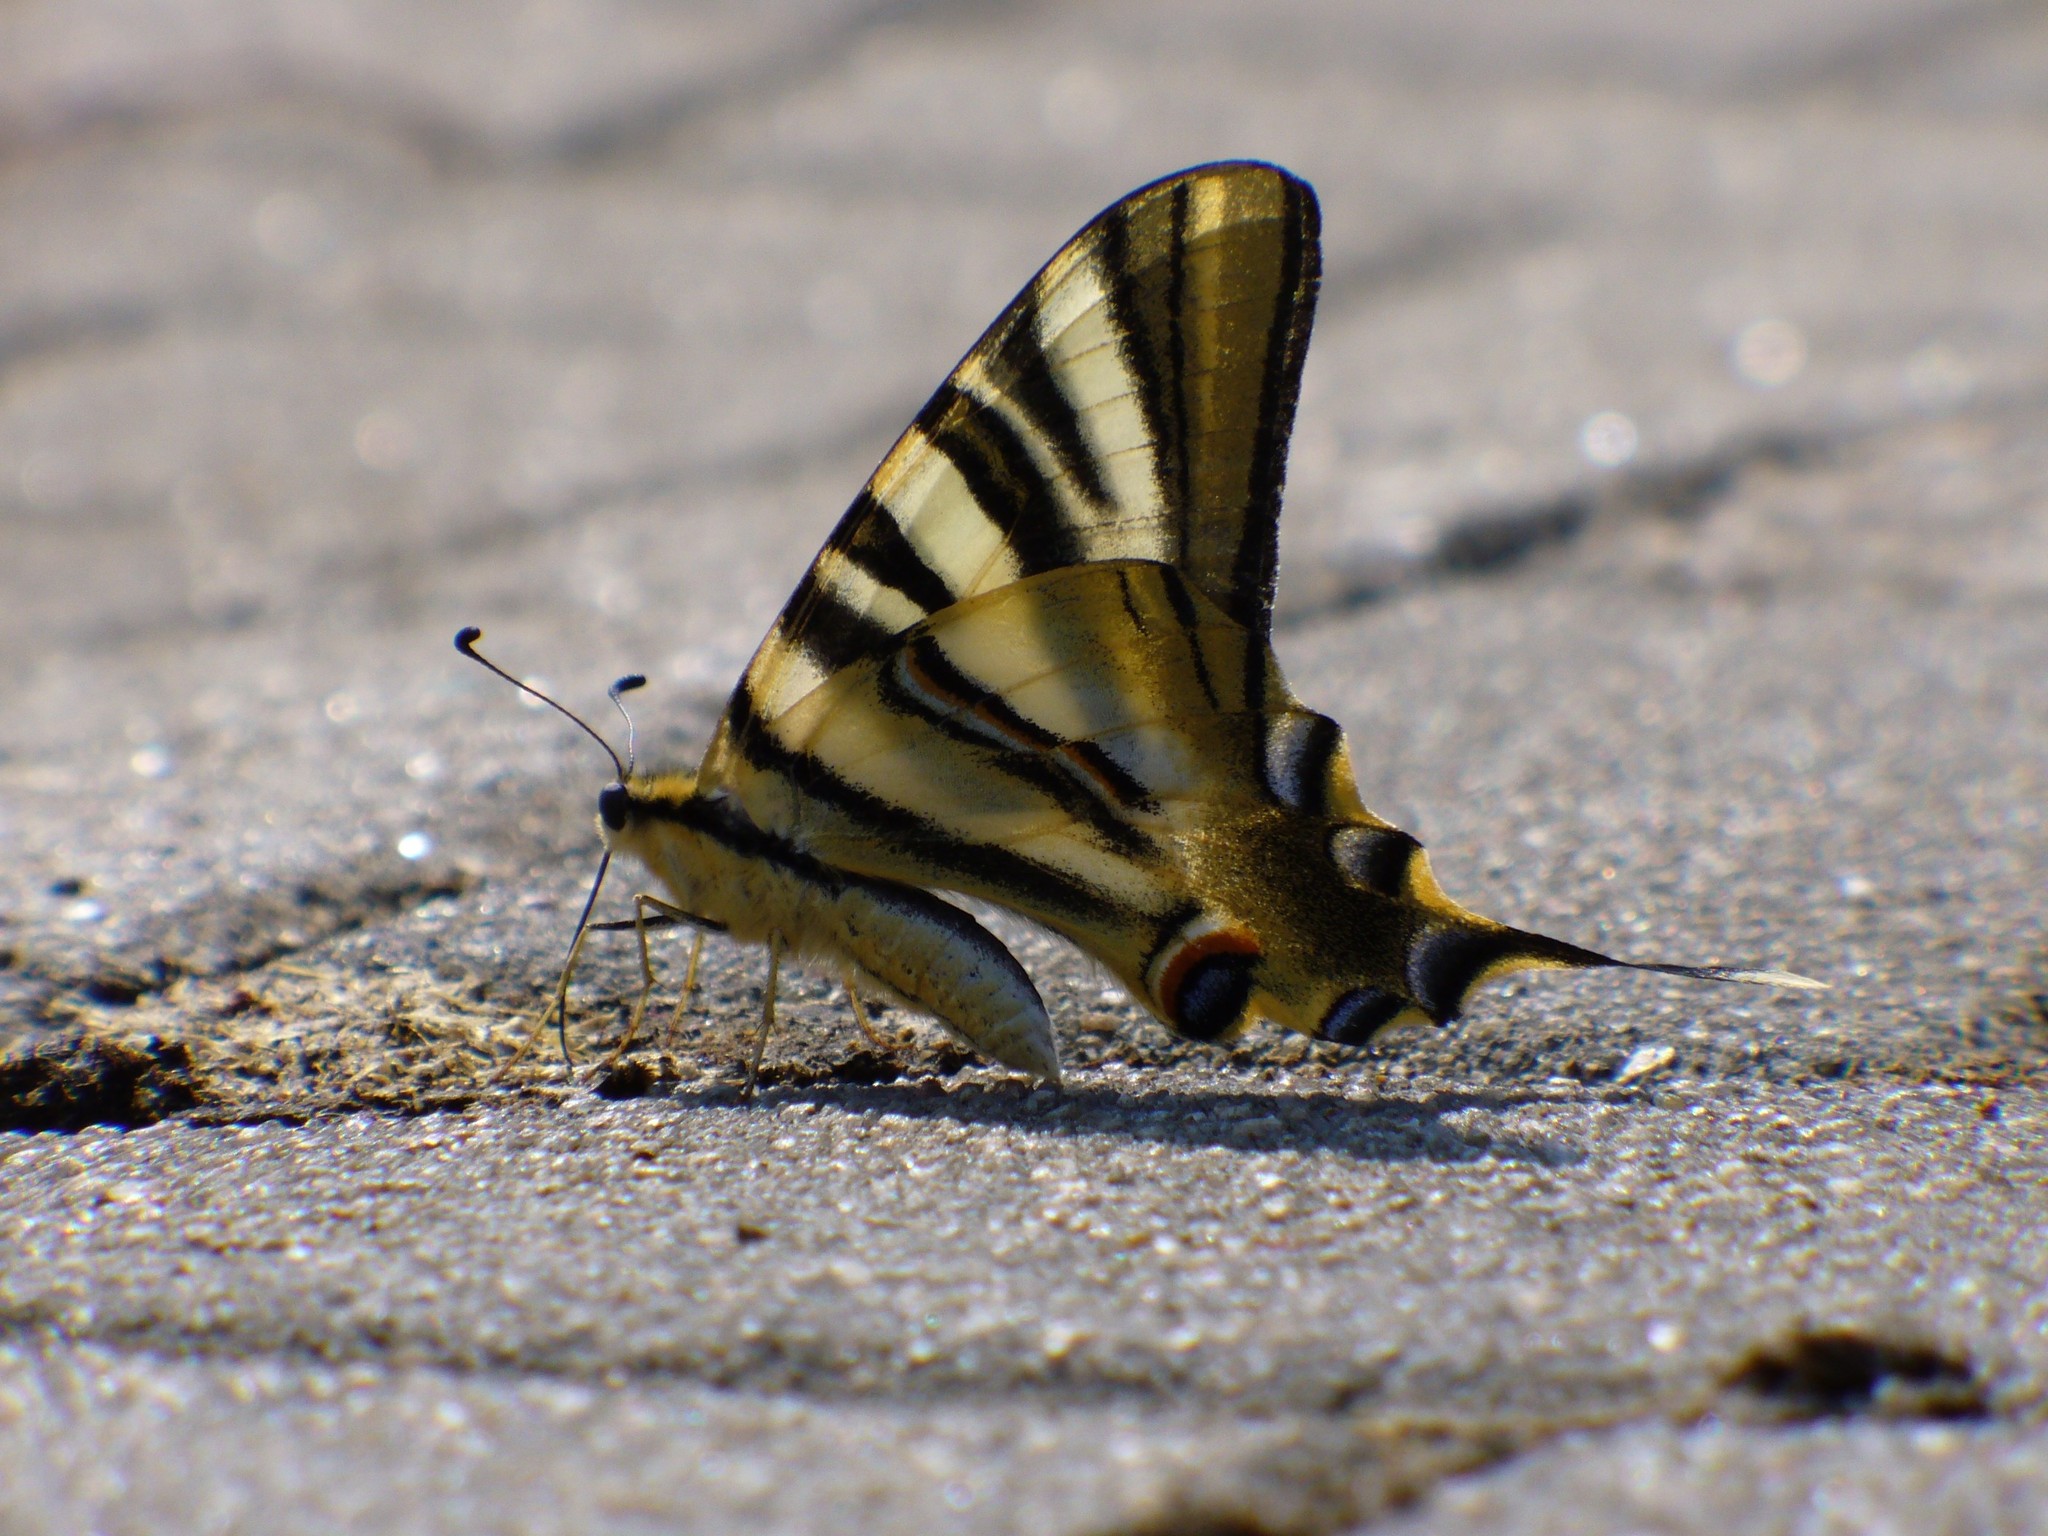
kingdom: Animalia
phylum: Arthropoda
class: Insecta
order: Lepidoptera
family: Papilionidae
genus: Iphiclides
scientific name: Iphiclides feisthamelii
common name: Iberian scarce swallowtail
